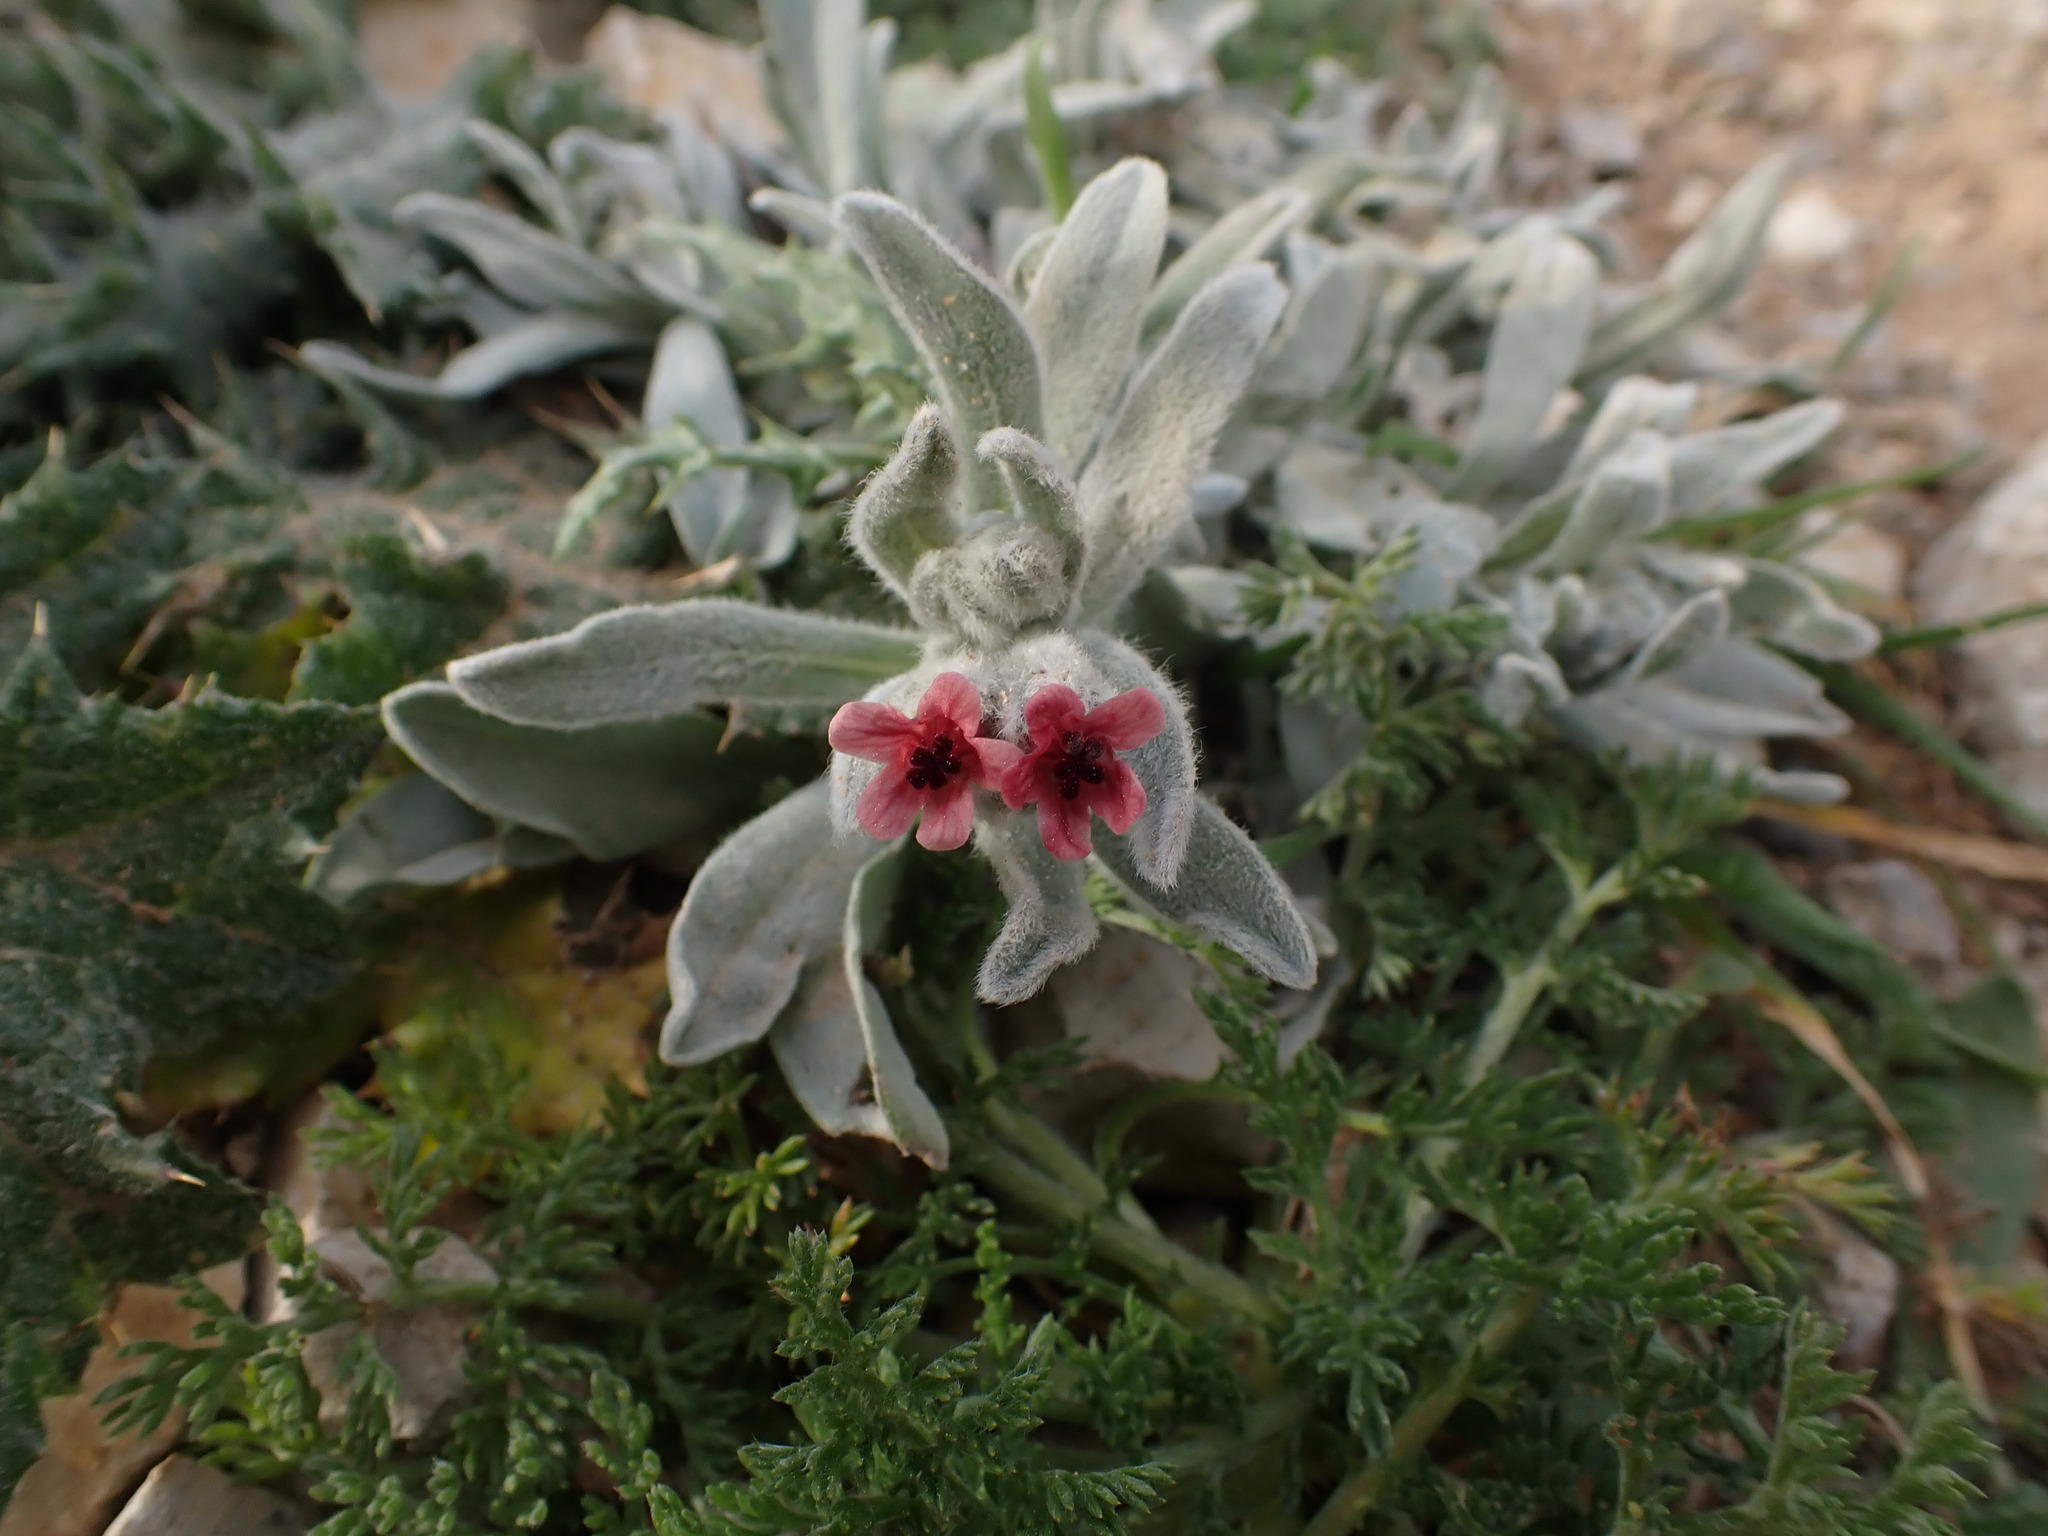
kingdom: Plantae
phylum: Tracheophyta
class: Magnoliopsida
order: Boraginales
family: Boraginaceae
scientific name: Boraginaceae
